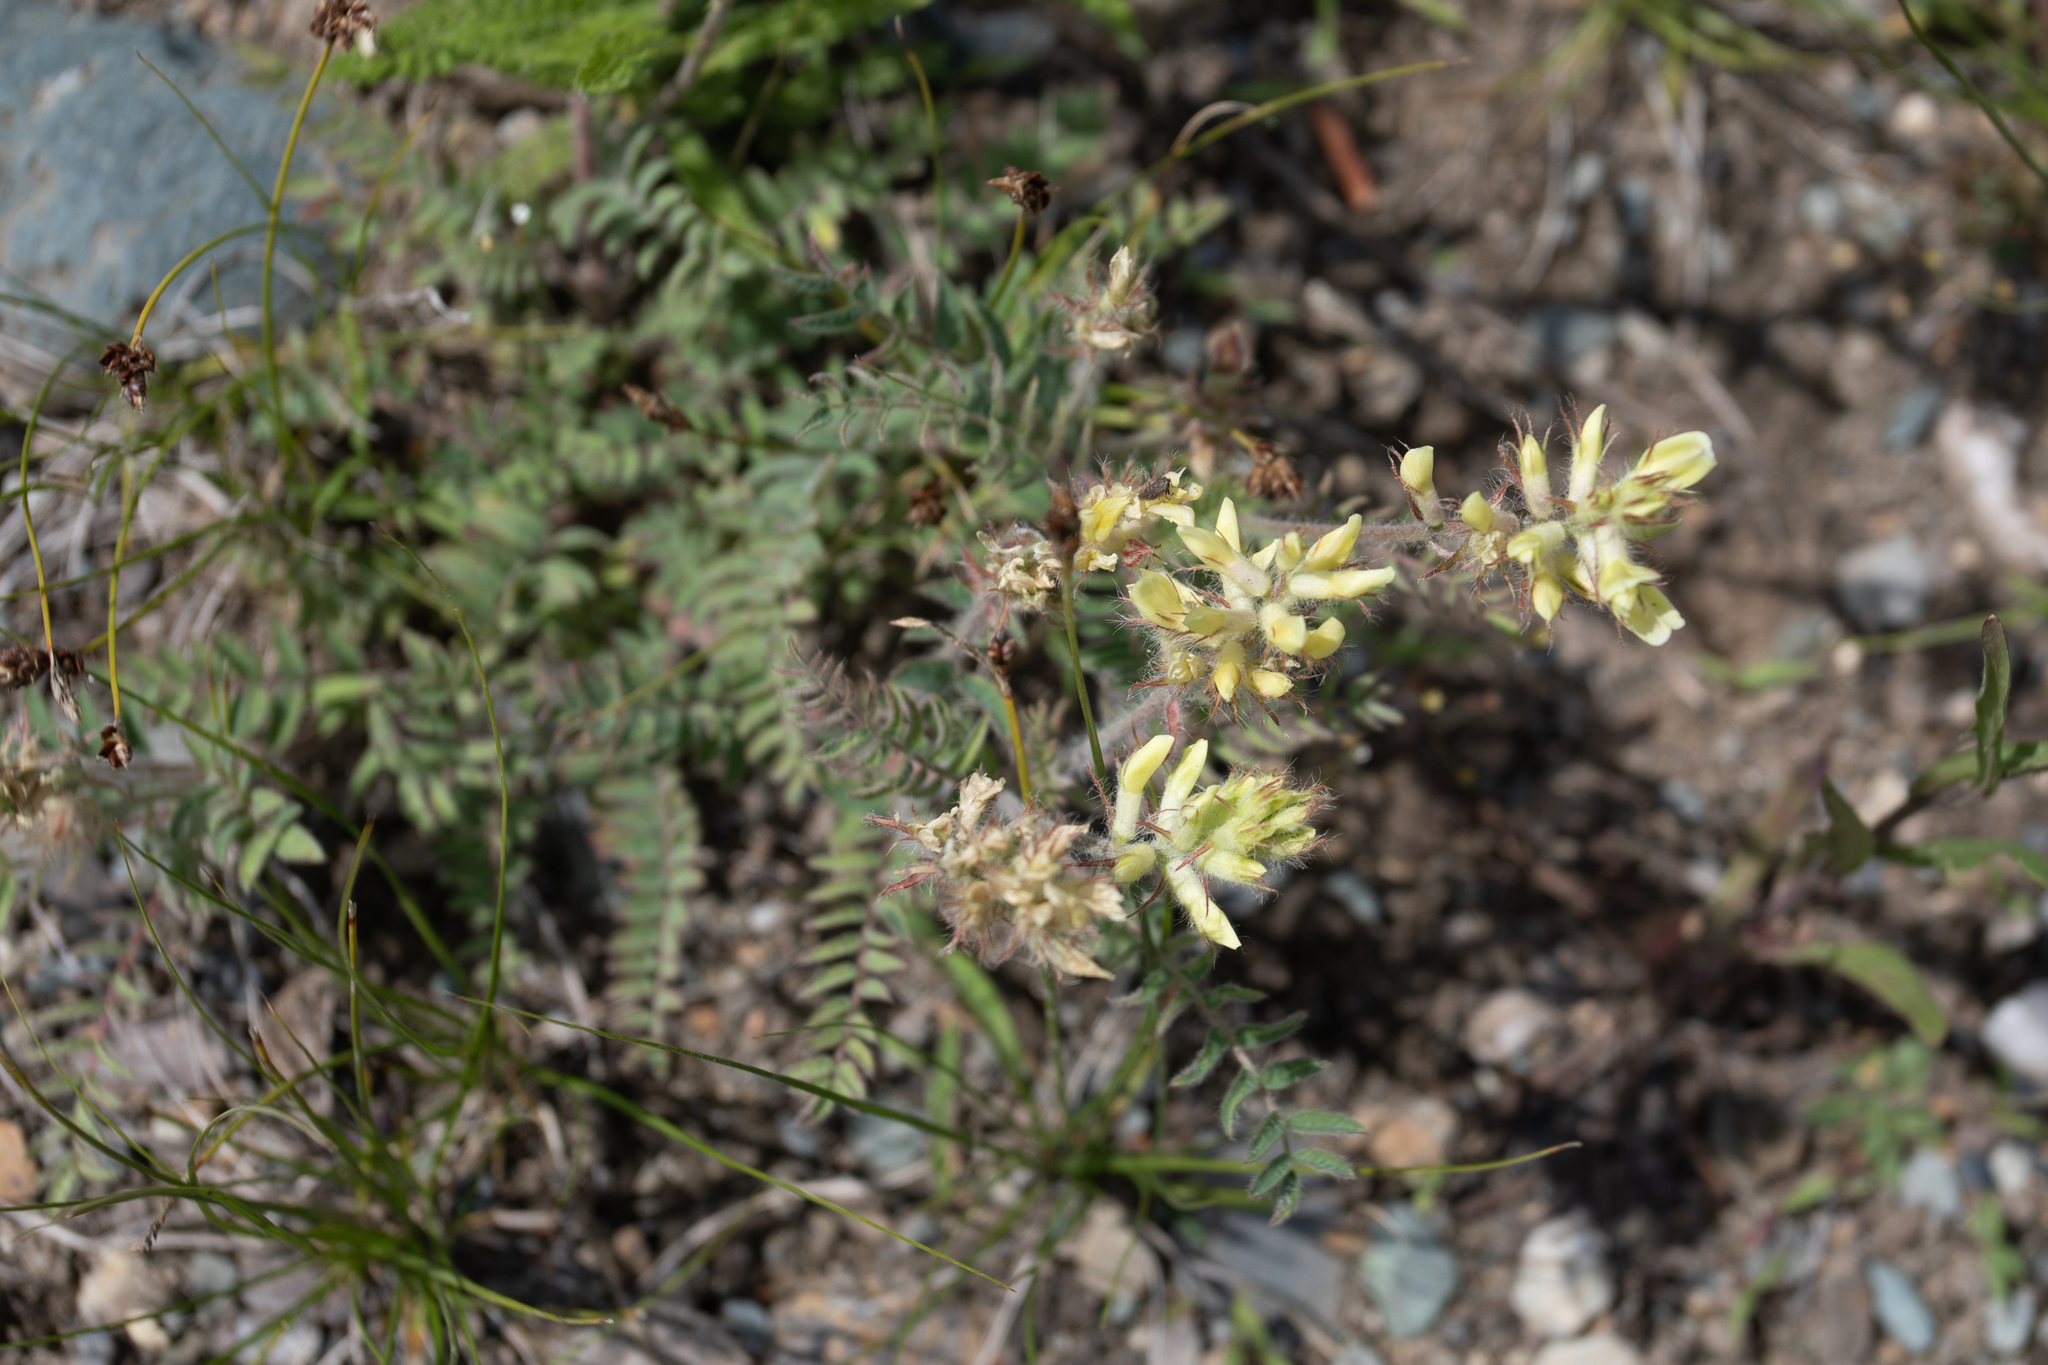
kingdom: Plantae
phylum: Tracheophyta
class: Magnoliopsida
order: Fabales
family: Fabaceae
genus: Oxytropis
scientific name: Oxytropis pilosa
